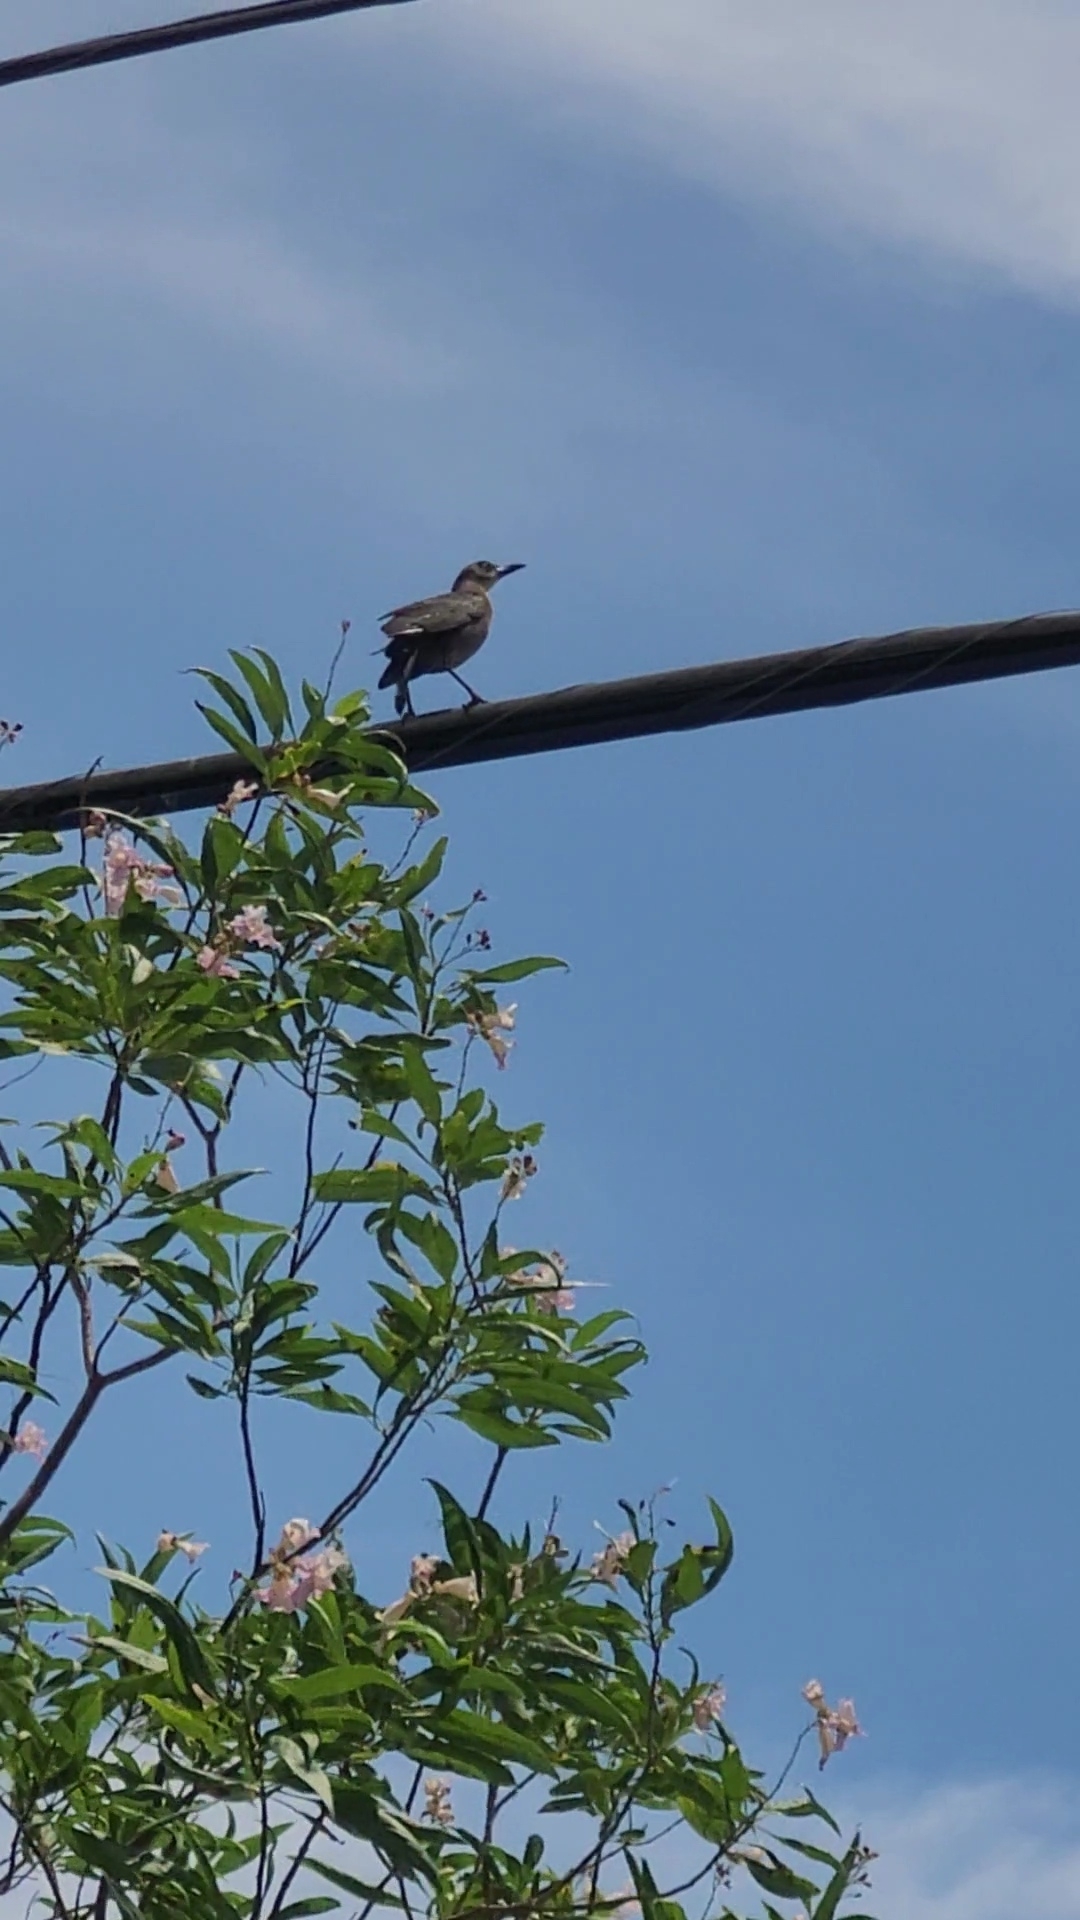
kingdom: Animalia
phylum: Chordata
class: Aves
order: Passeriformes
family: Icteridae
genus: Quiscalus
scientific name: Quiscalus mexicanus
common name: Great-tailed grackle
